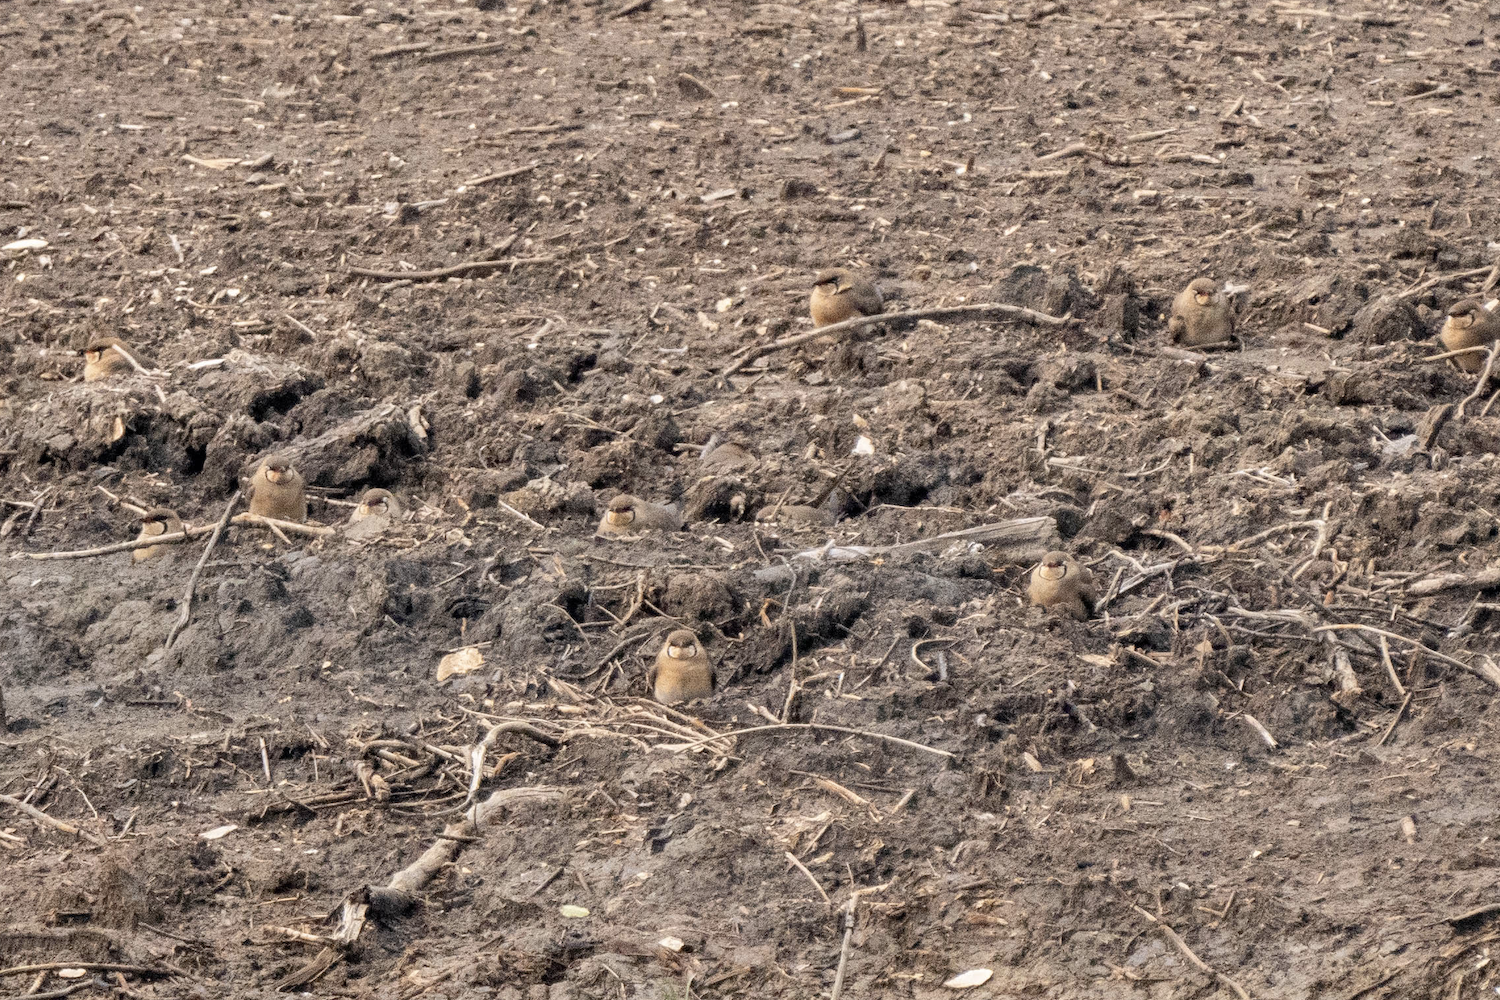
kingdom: Animalia
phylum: Chordata
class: Aves
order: Charadriiformes
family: Glareolidae
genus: Glareola
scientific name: Glareola maldivarum
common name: Oriental pratincole
